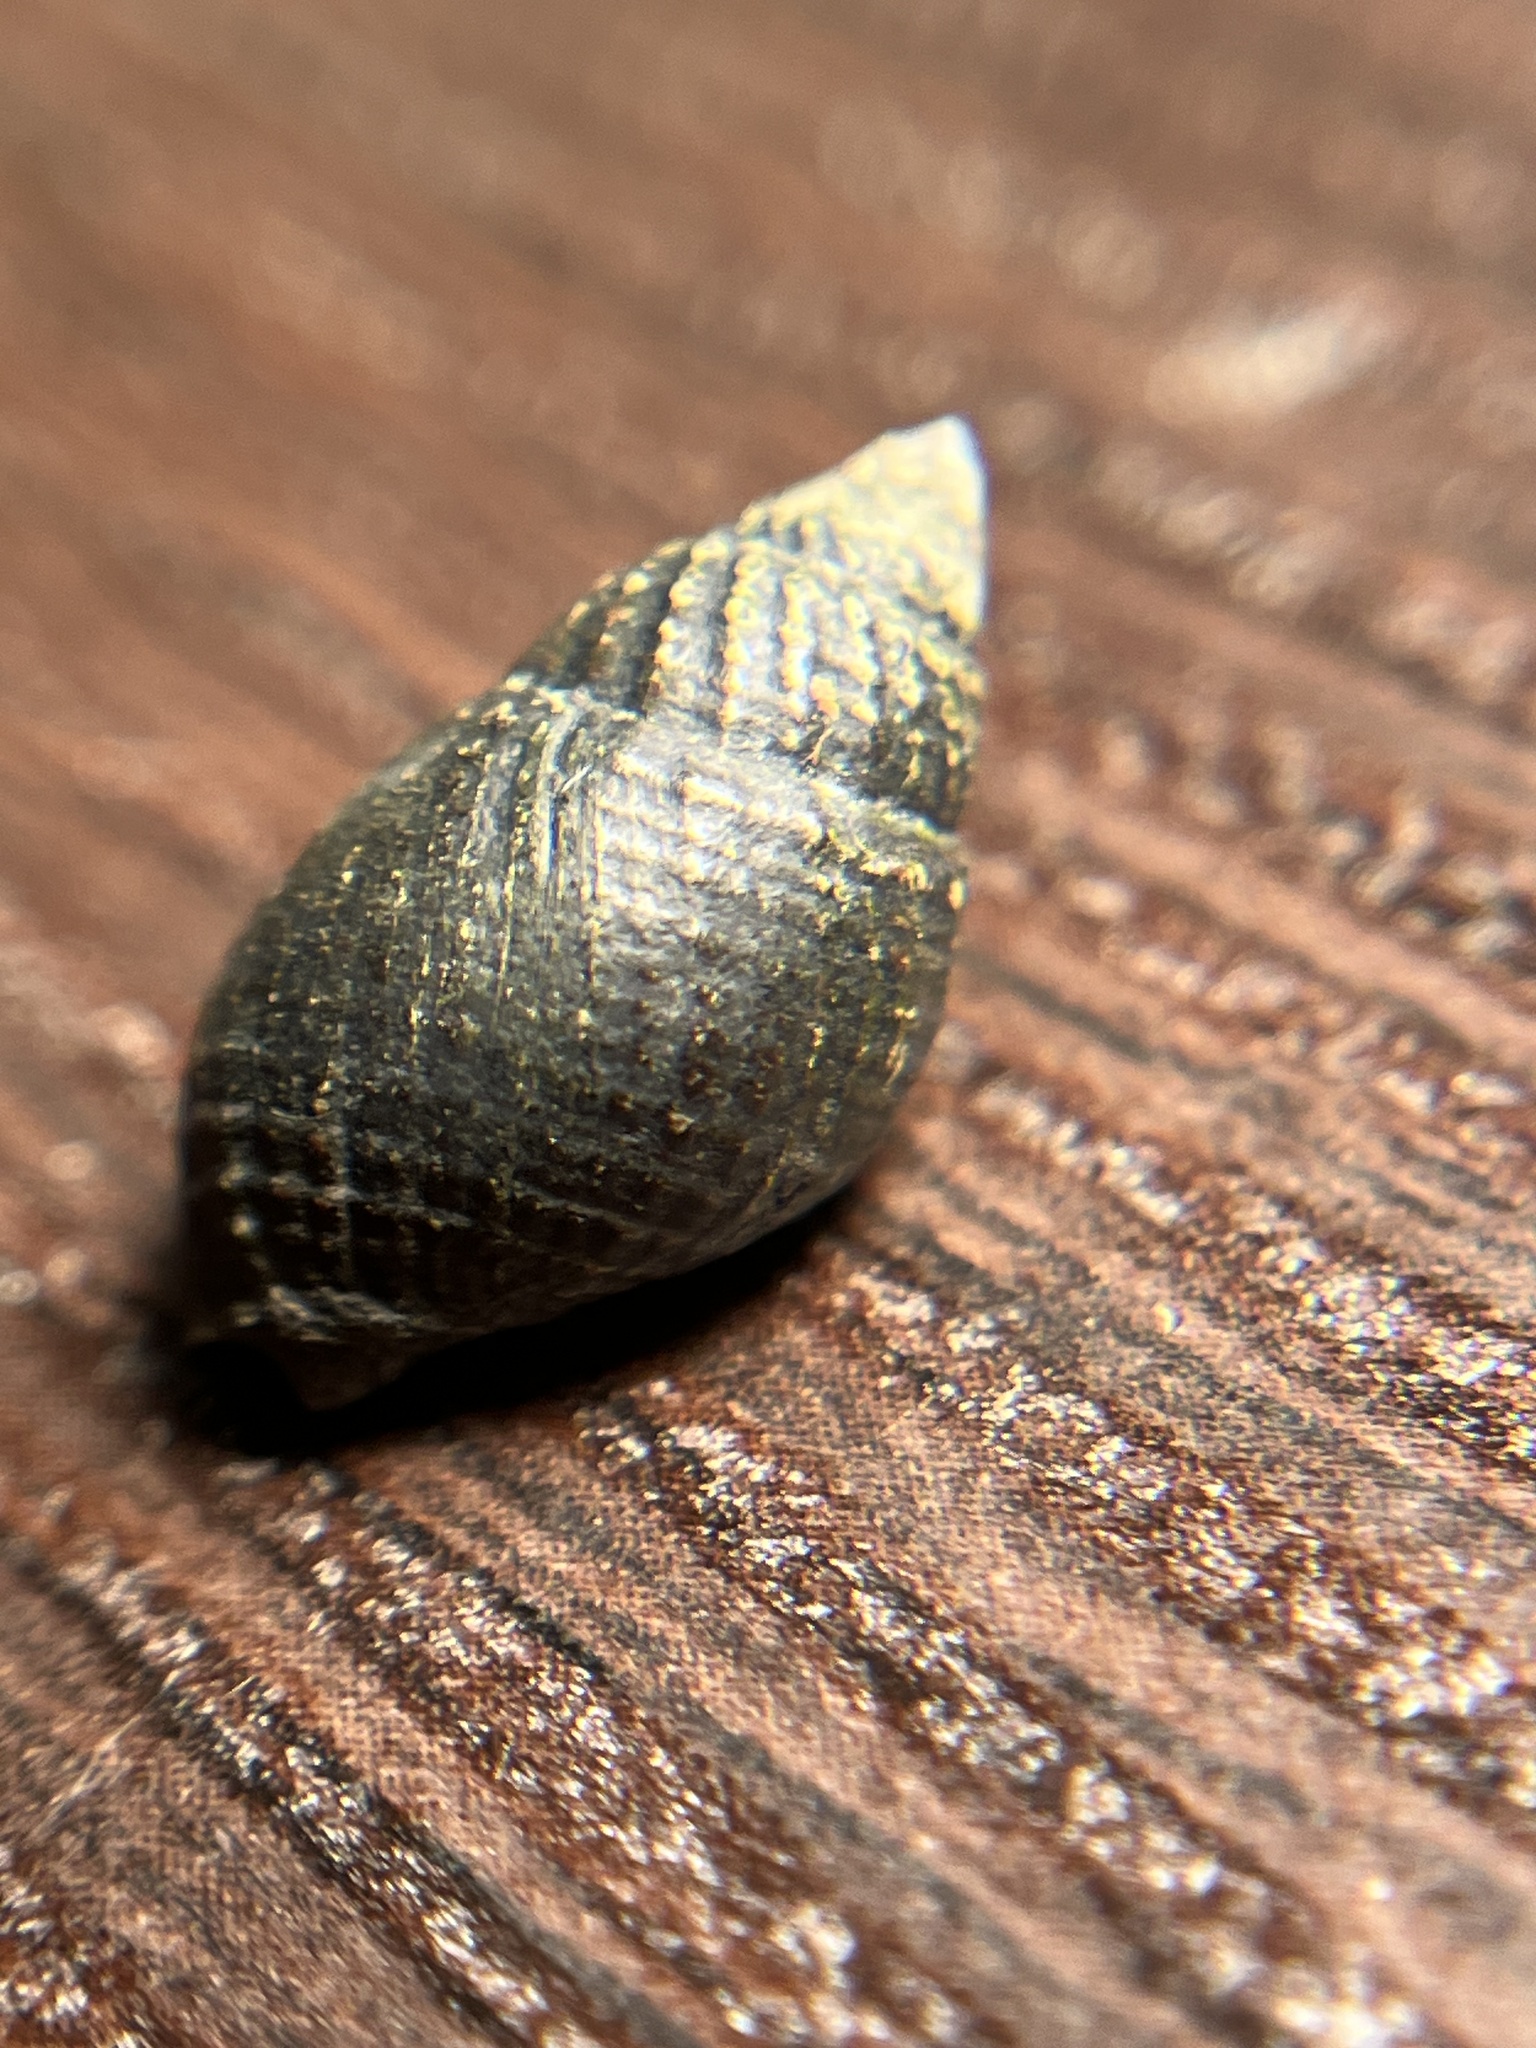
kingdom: Animalia
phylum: Mollusca
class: Gastropoda
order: Neogastropoda
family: Nassariidae
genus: Ilyanassa
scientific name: Ilyanassa obsoleta
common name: Eastern mudsnail
